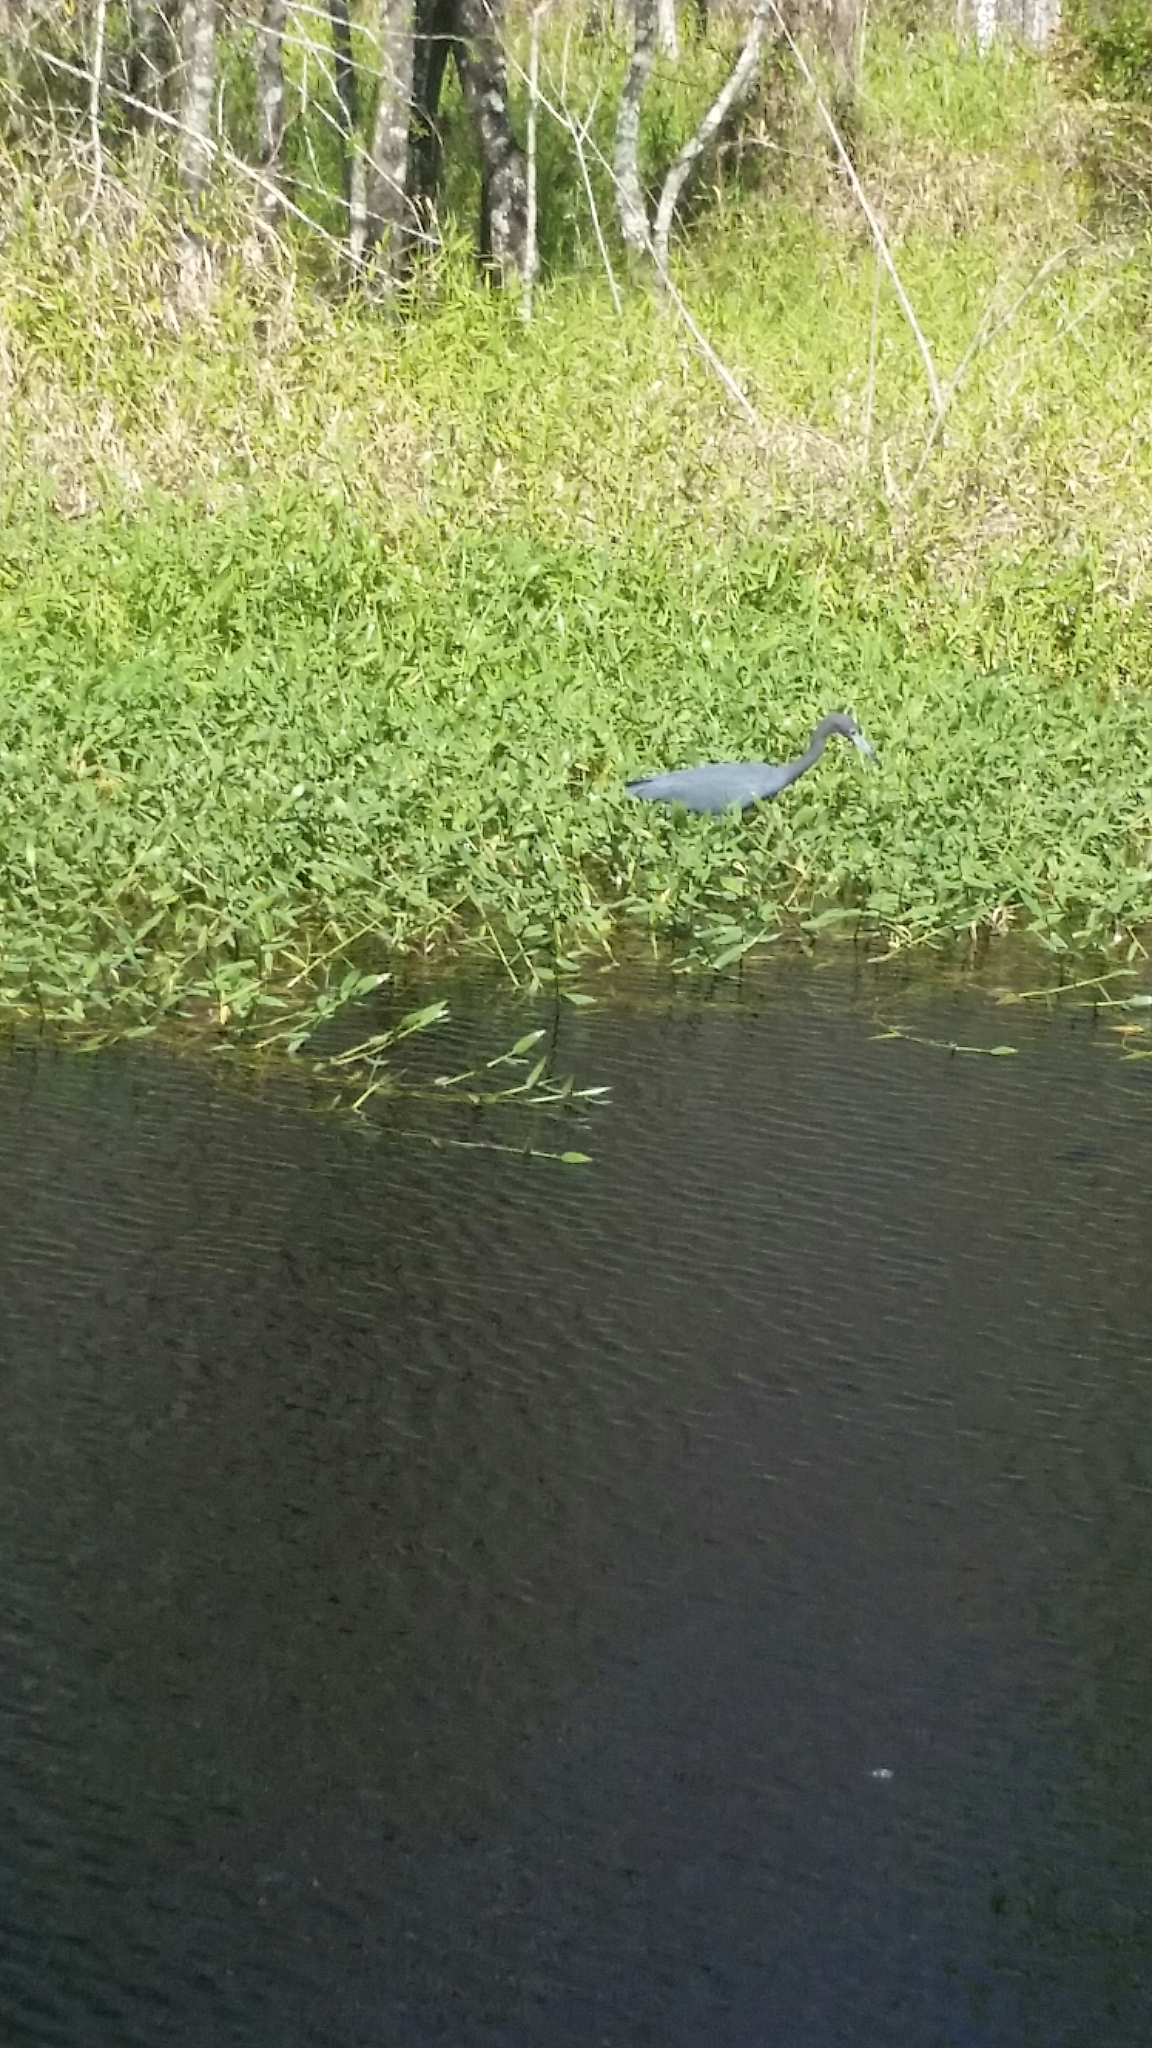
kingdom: Animalia
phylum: Chordata
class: Aves
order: Pelecaniformes
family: Ardeidae
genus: Egretta
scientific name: Egretta caerulea
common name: Little blue heron
